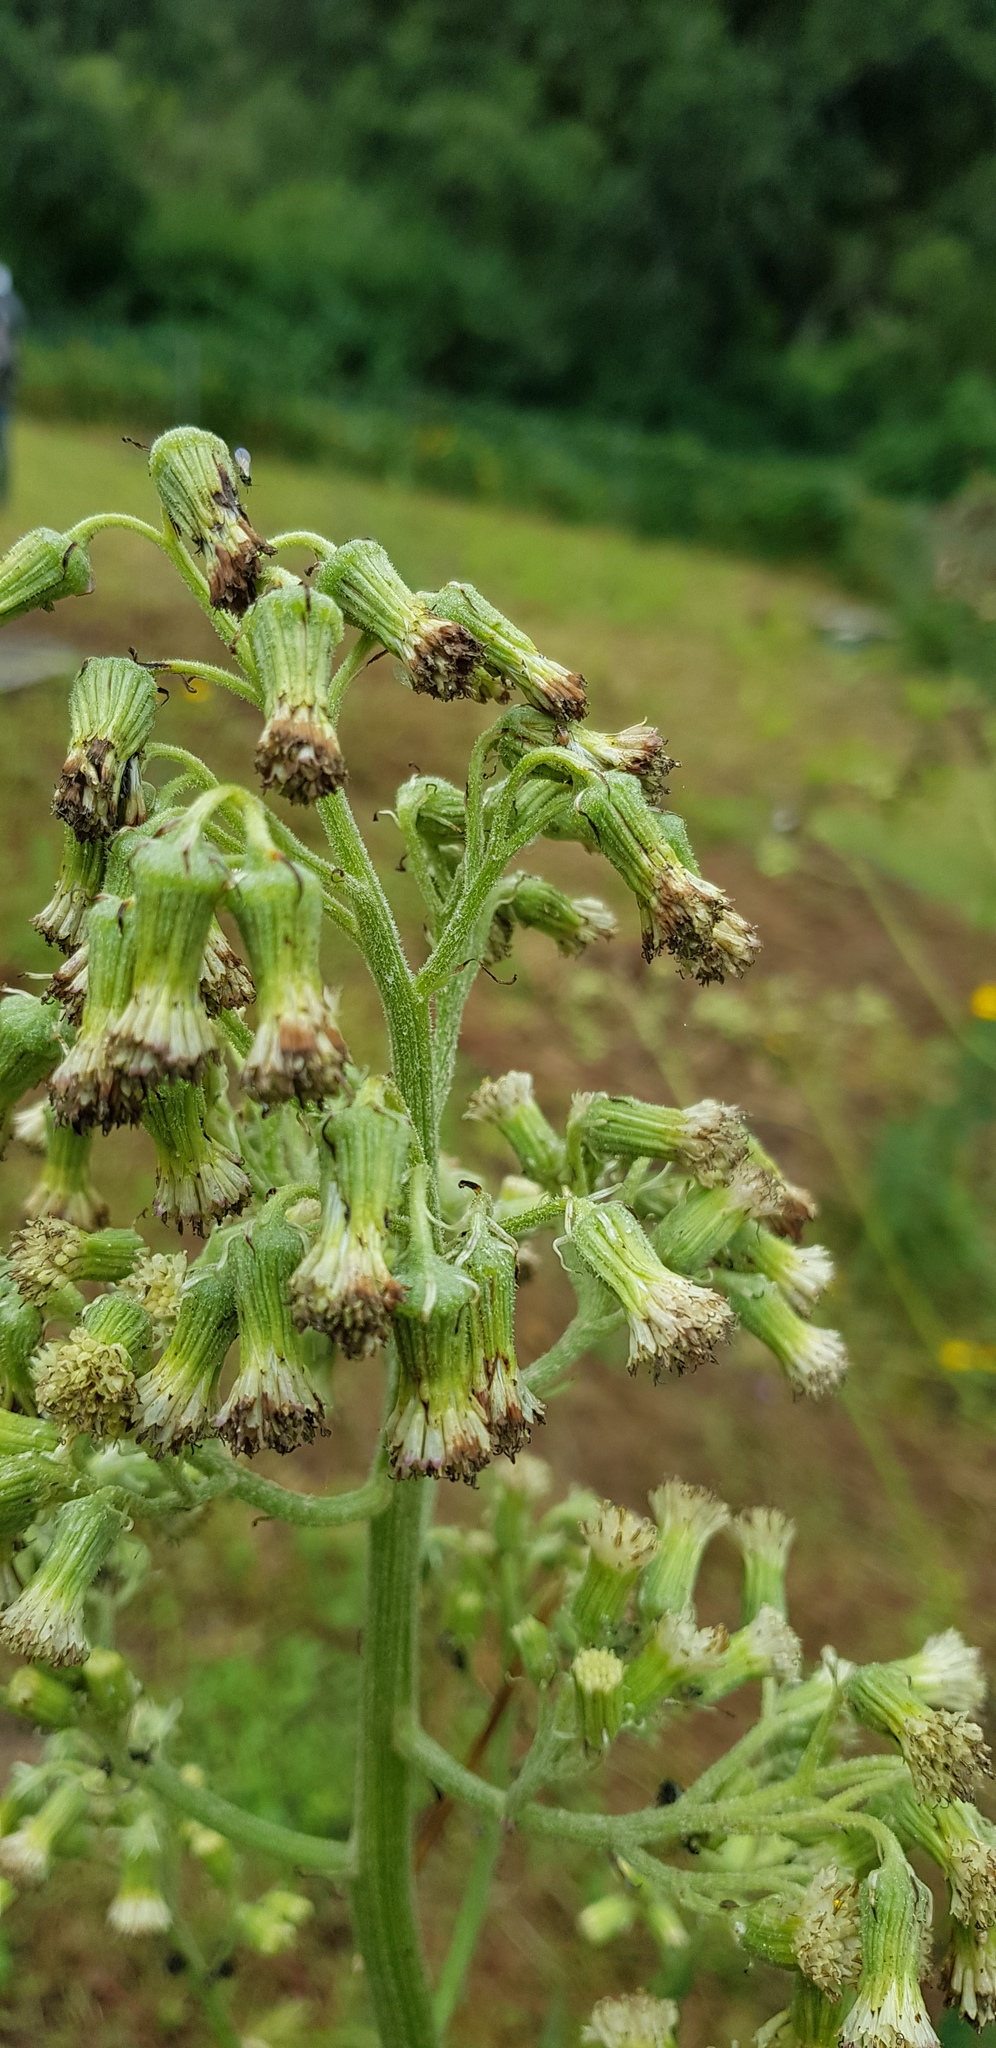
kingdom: Plantae
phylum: Tracheophyta
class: Magnoliopsida
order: Asterales
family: Asteraceae
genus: Senecio
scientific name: Senecio sennikovii
